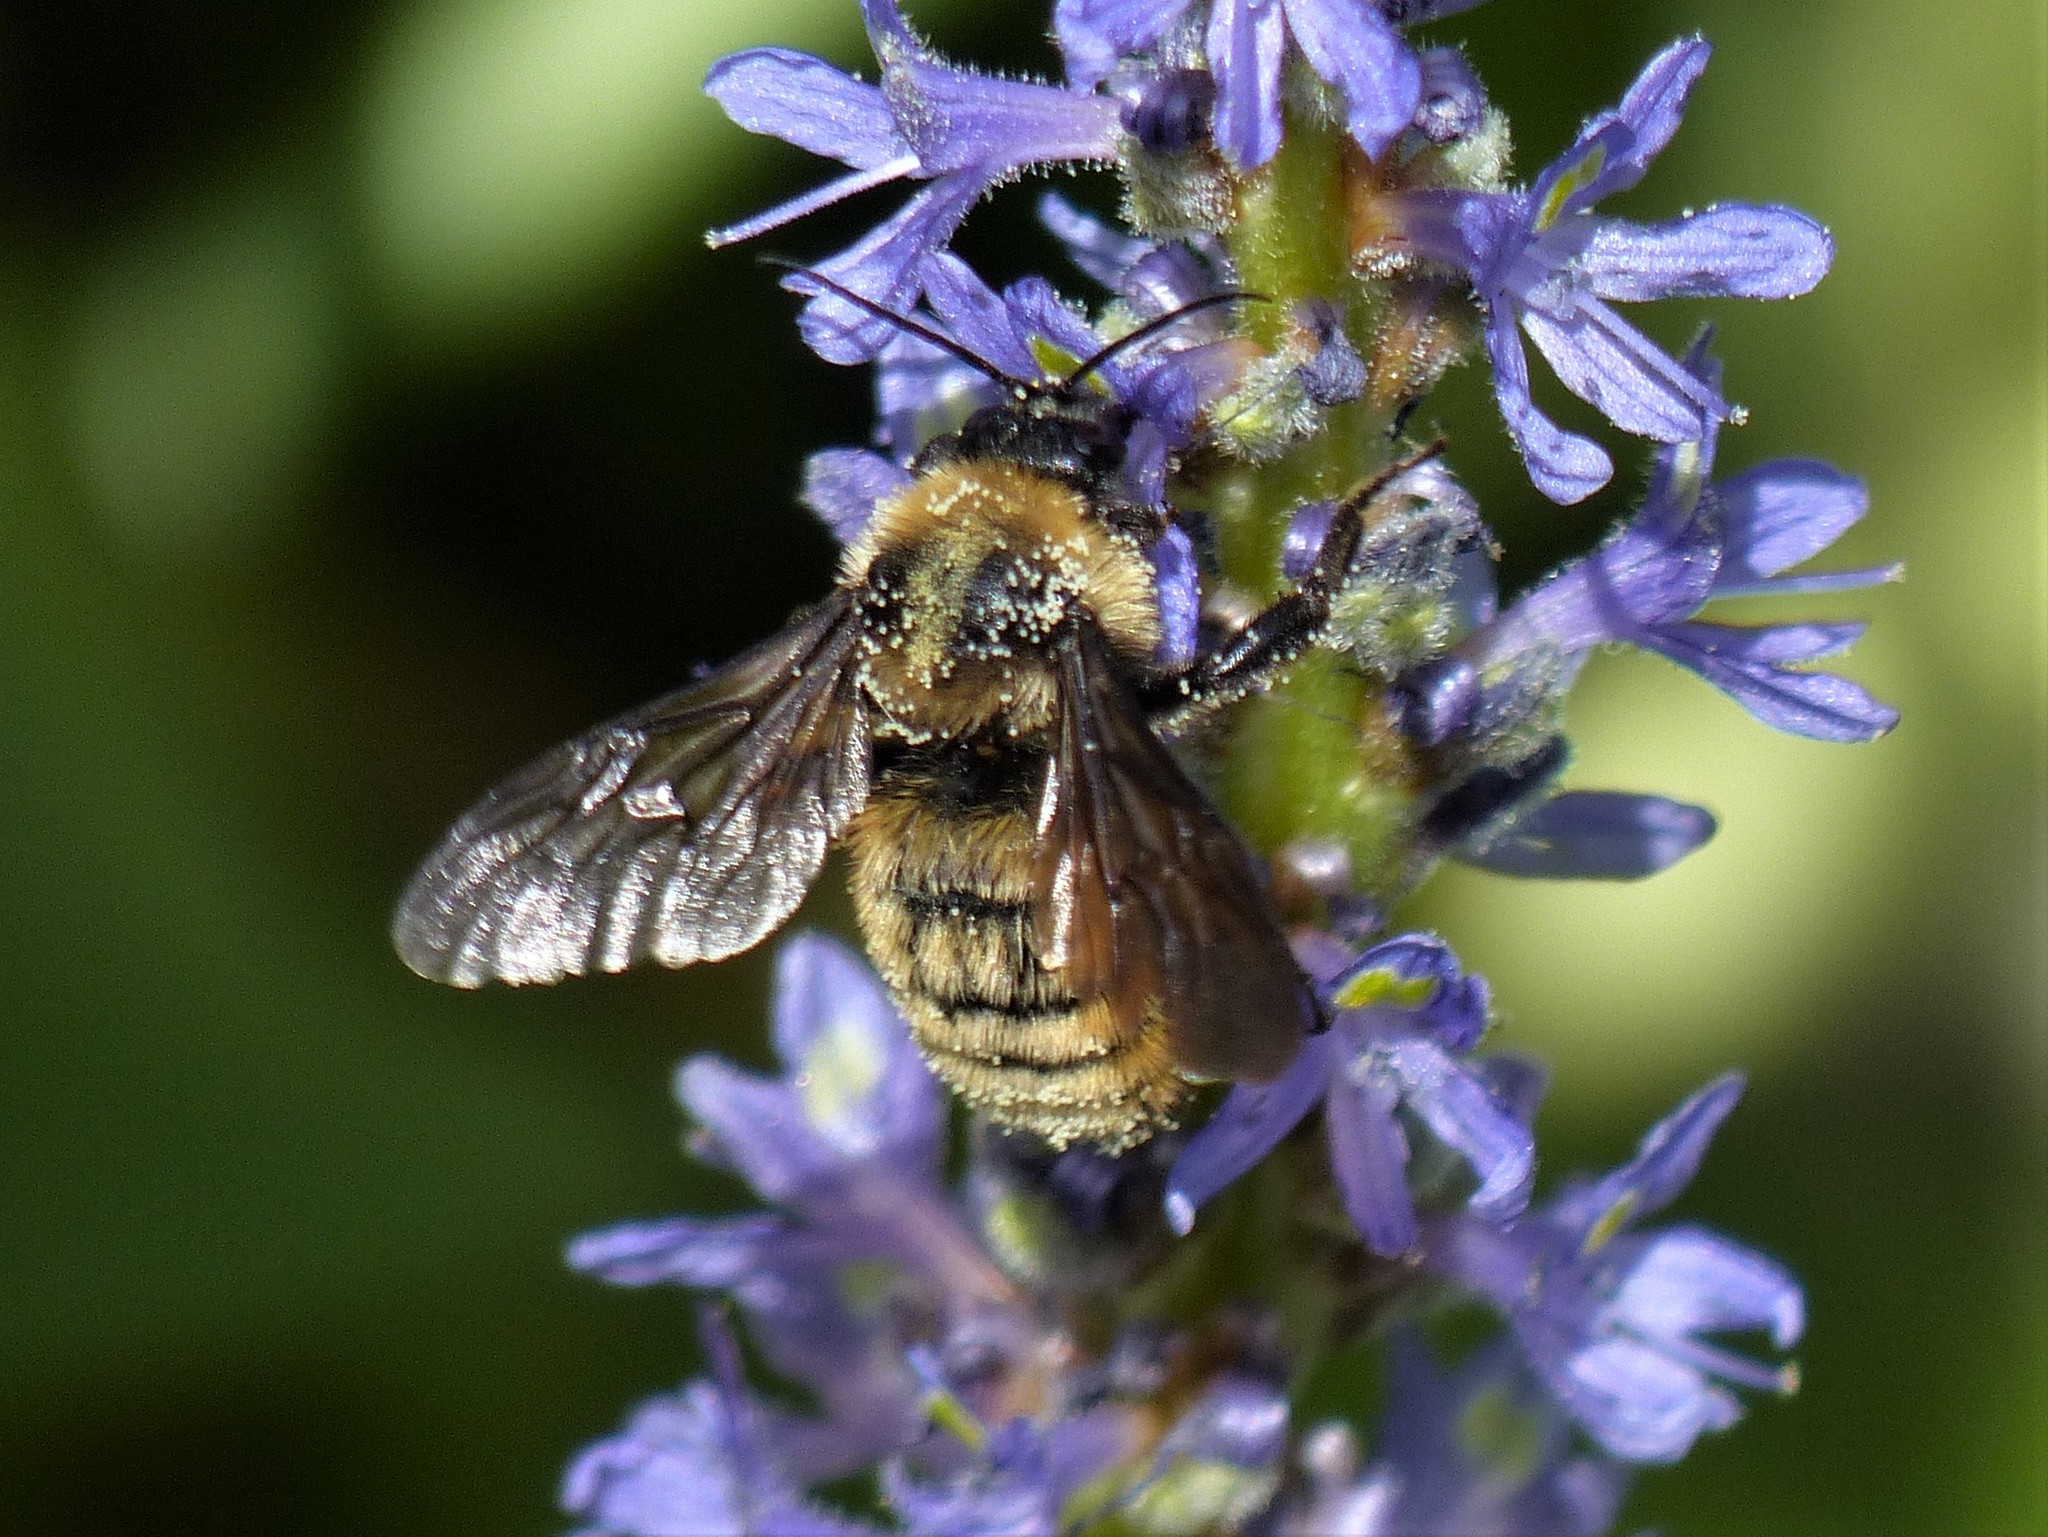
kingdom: Animalia
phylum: Arthropoda
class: Insecta
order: Hymenoptera
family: Apidae
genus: Bombus
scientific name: Bombus pensylvanicus
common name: Bumble bee
